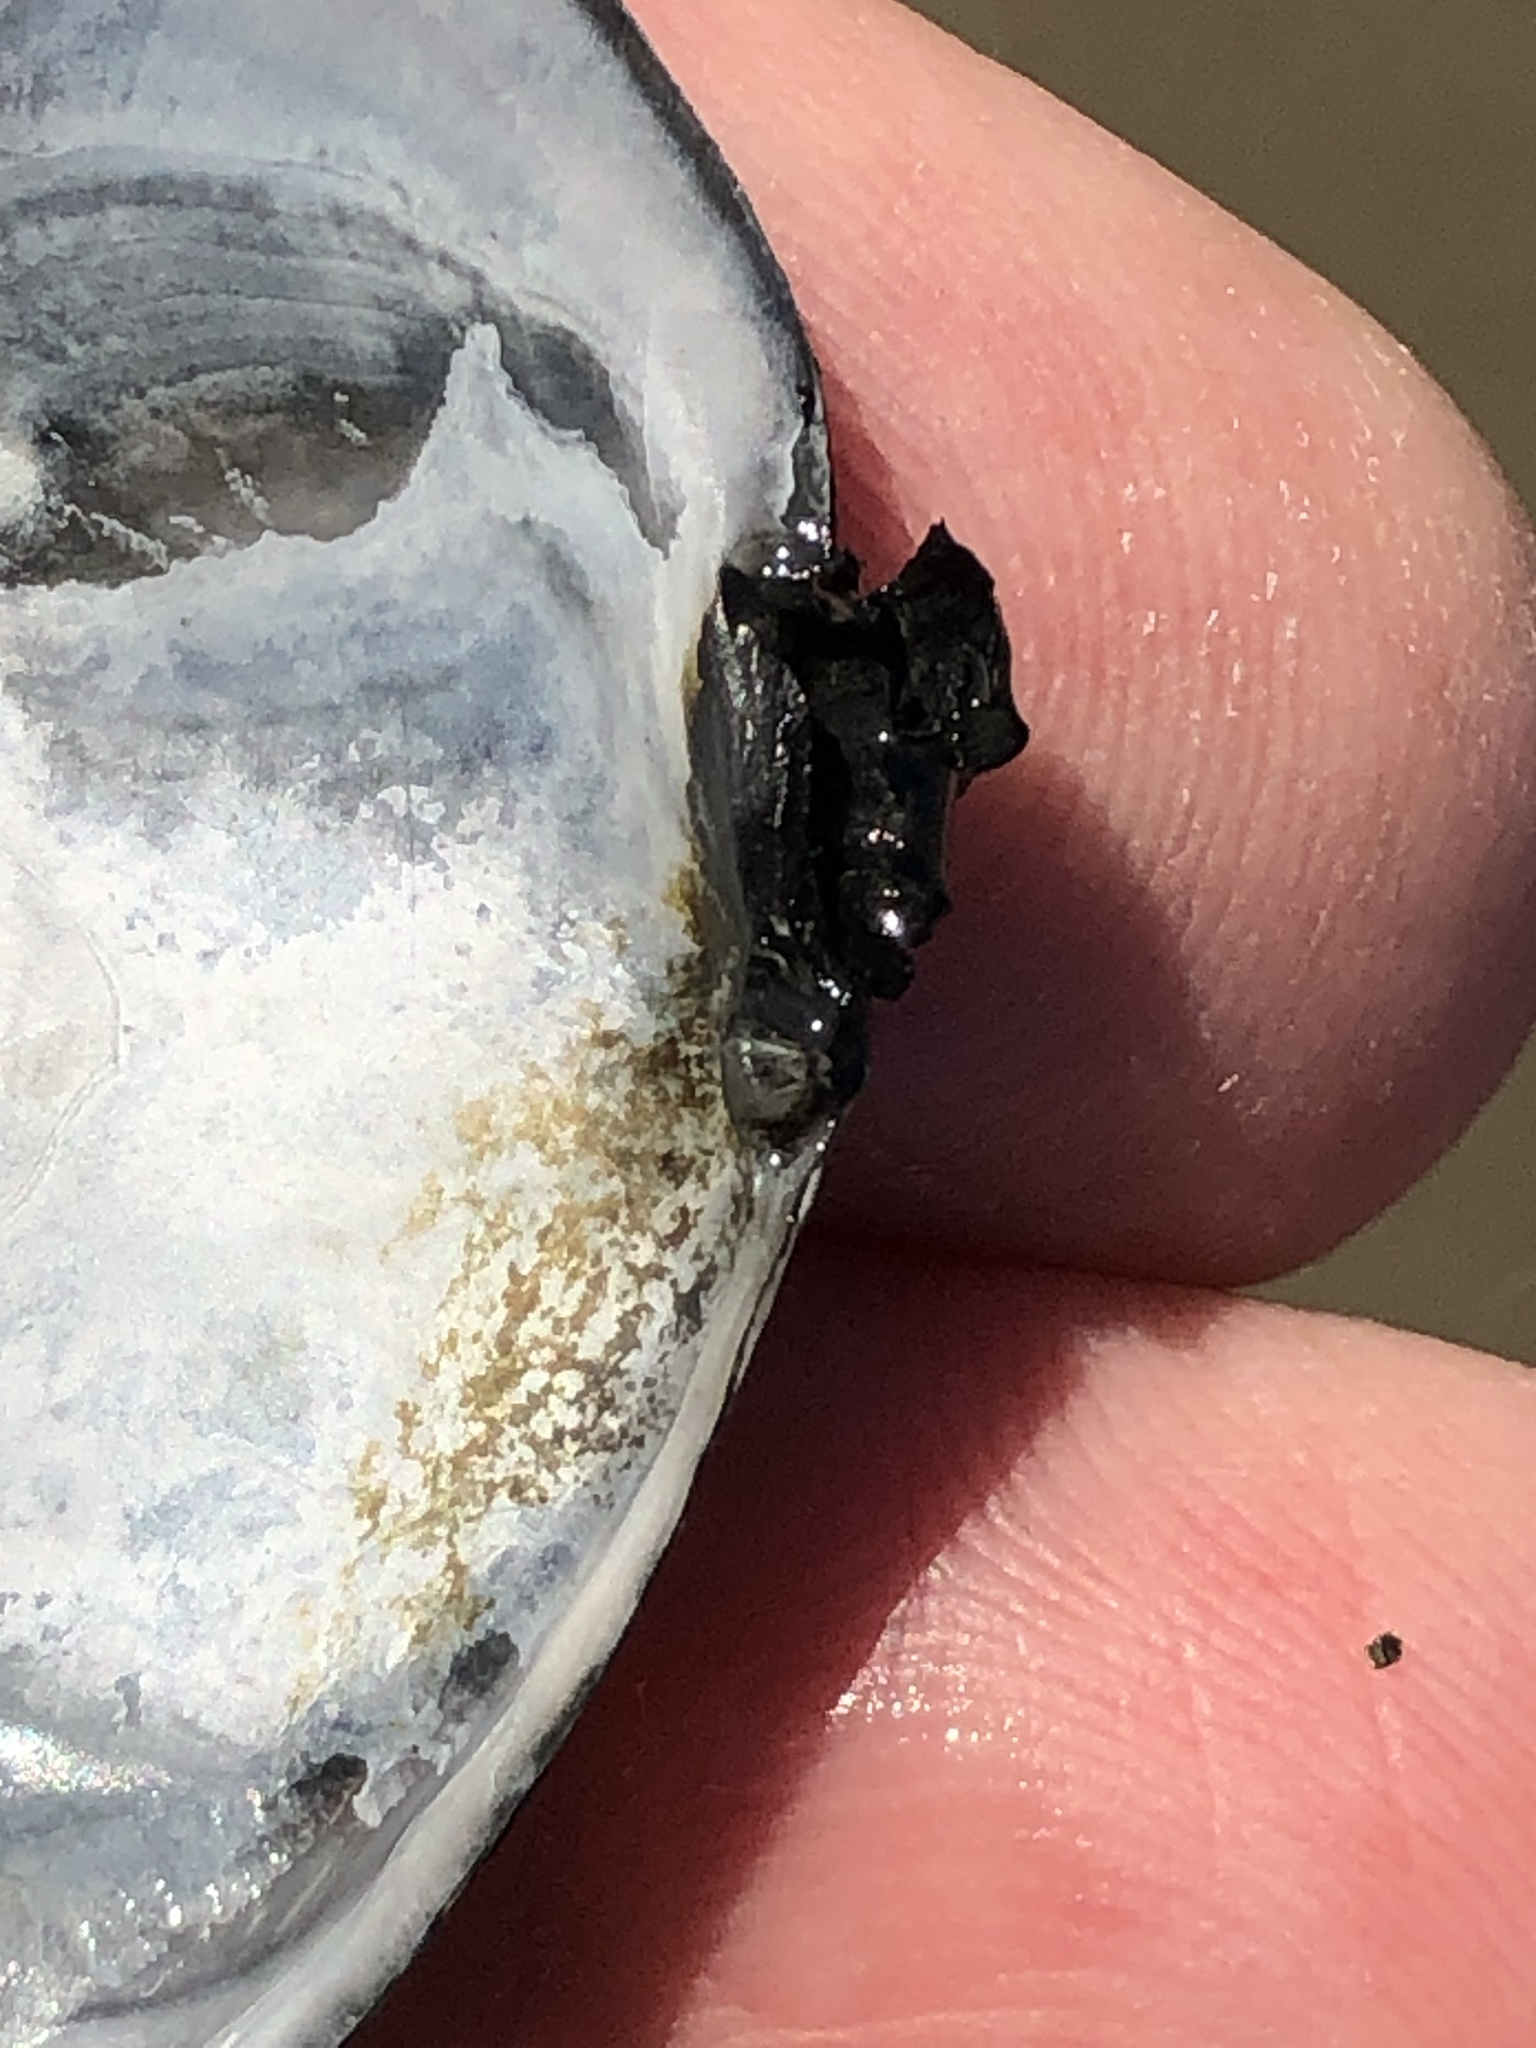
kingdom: Animalia
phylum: Mollusca
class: Bivalvia
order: Cardiida
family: Tellinidae
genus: Rexithaerus
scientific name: Rexithaerus secta
